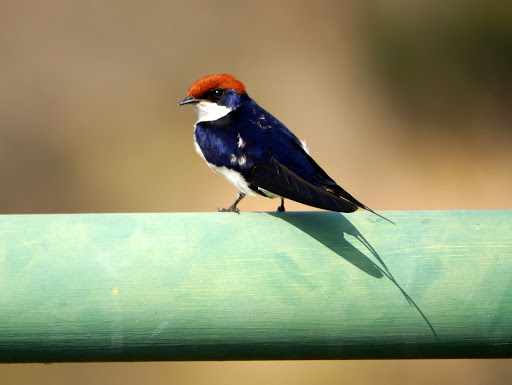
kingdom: Animalia
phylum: Chordata
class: Aves
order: Passeriformes
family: Hirundinidae
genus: Hirundo
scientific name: Hirundo smithii
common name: Wire-tailed swallow
